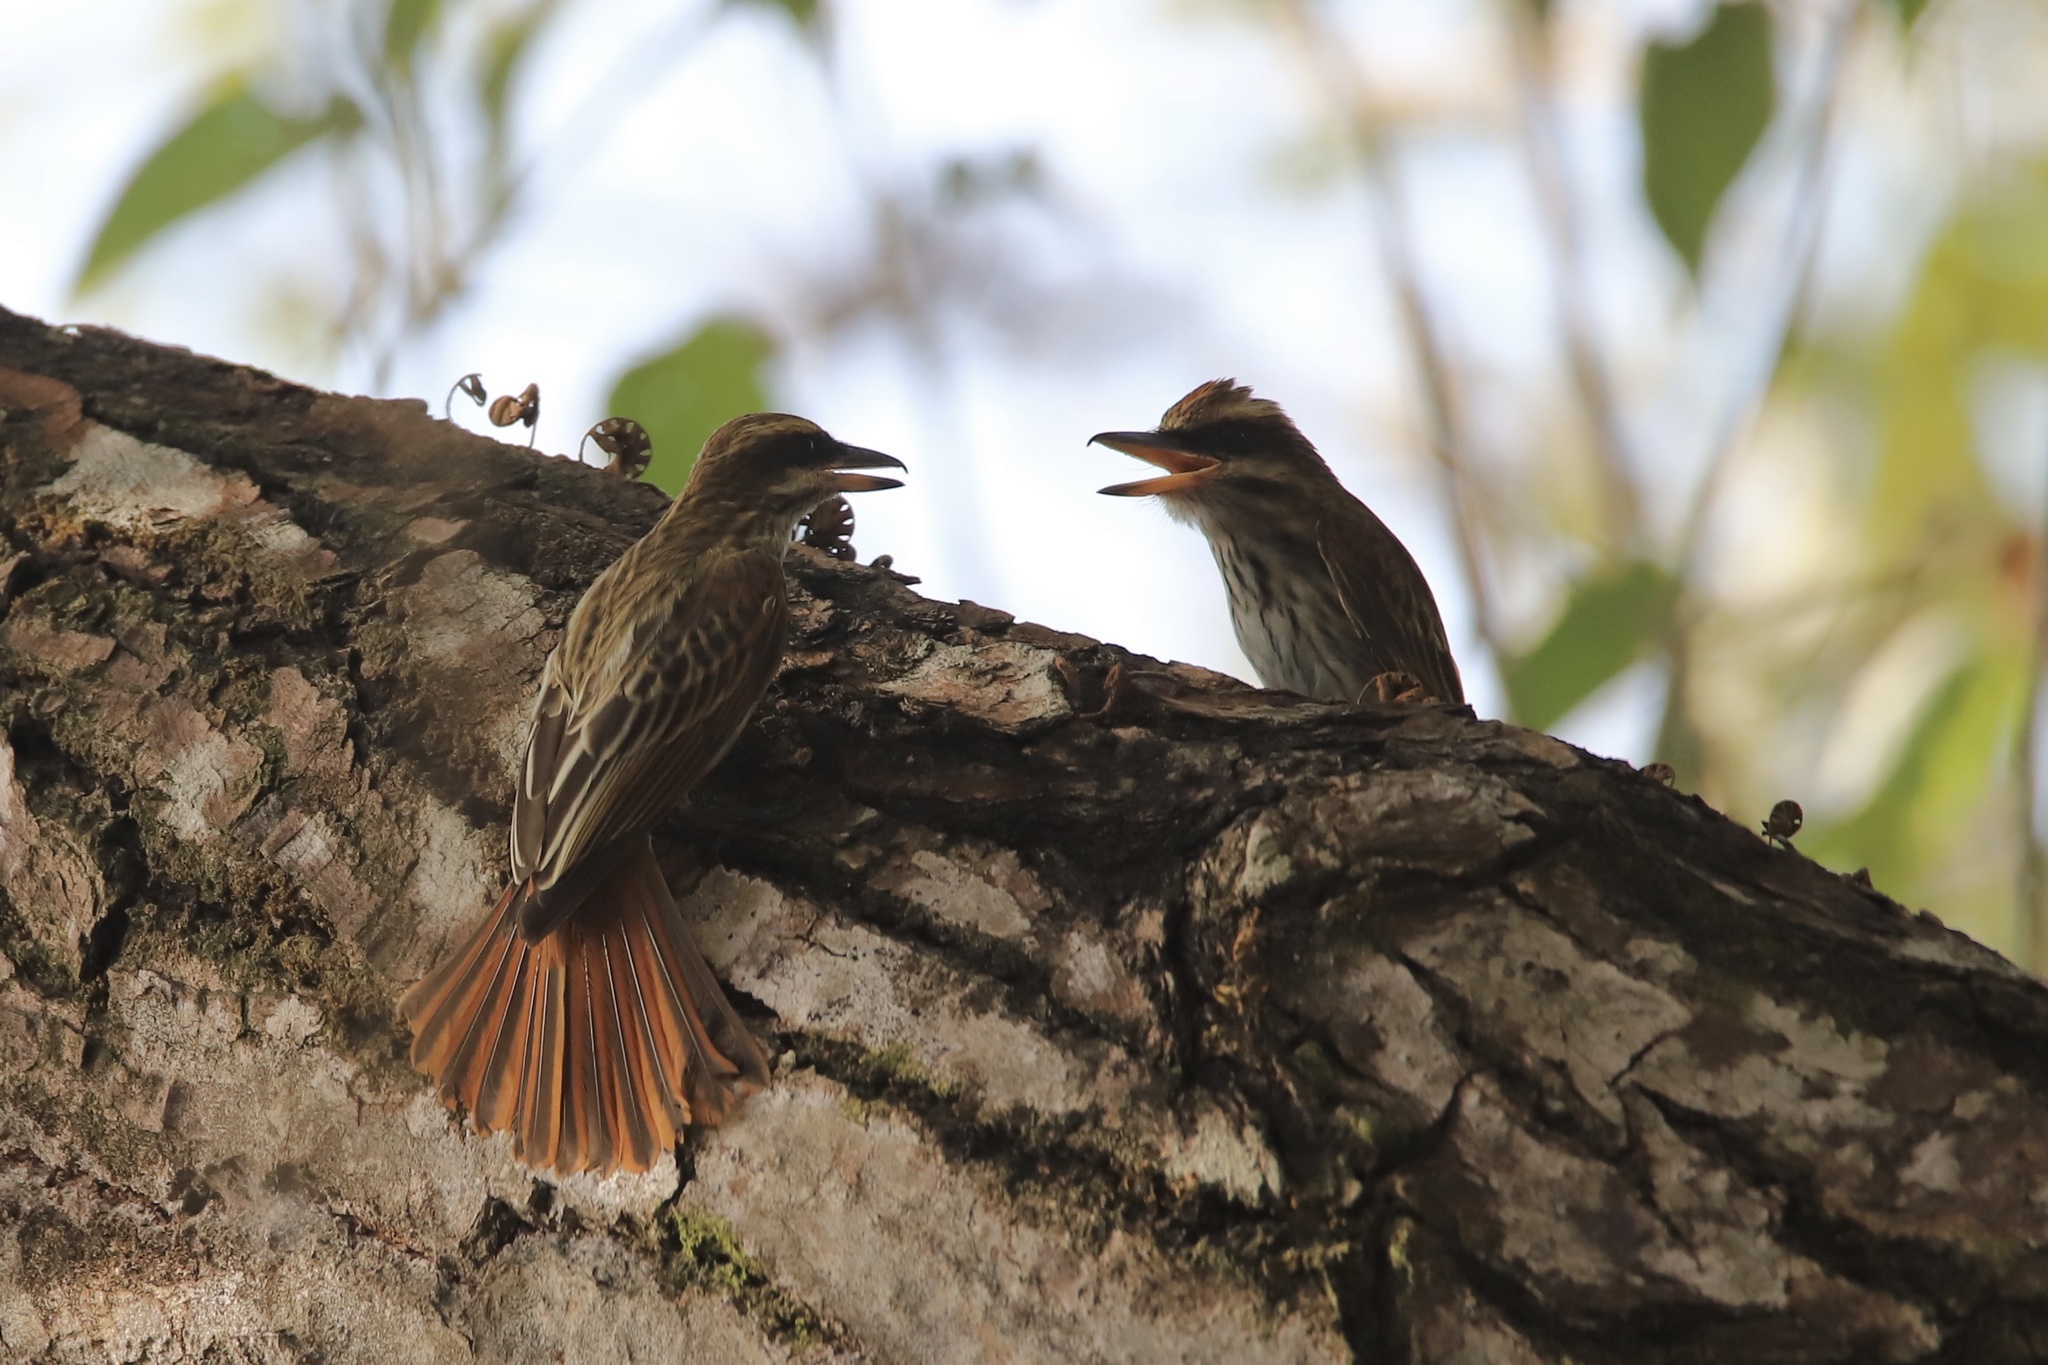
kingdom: Animalia
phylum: Chordata
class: Aves
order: Passeriformes
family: Tyrannidae
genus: Myiodynastes
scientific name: Myiodynastes maculatus
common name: Streaked flycatcher
